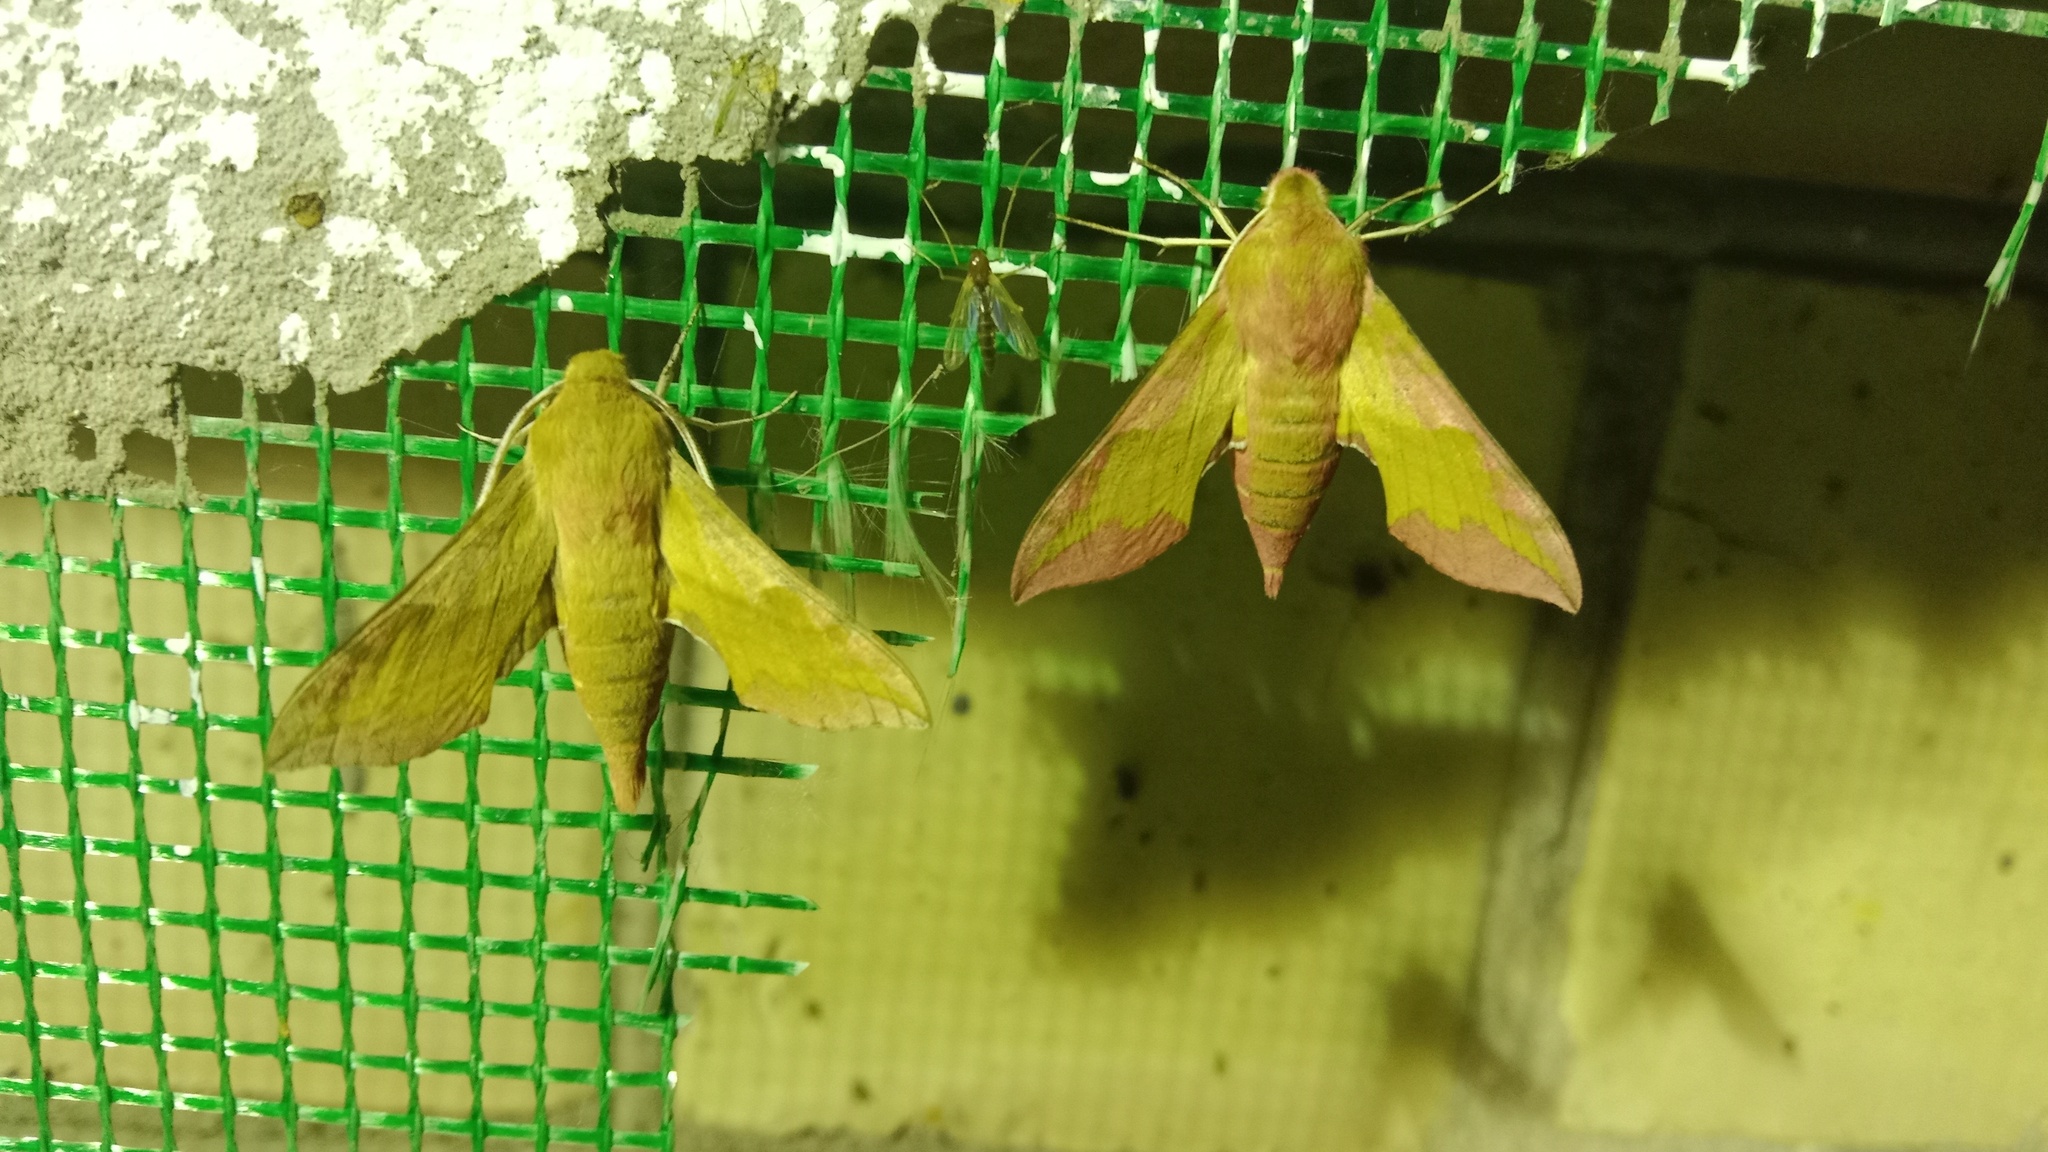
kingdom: Animalia
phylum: Arthropoda
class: Insecta
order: Lepidoptera
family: Sphingidae
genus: Deilephila
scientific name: Deilephila porcellus
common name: Small elephant hawk-moth
